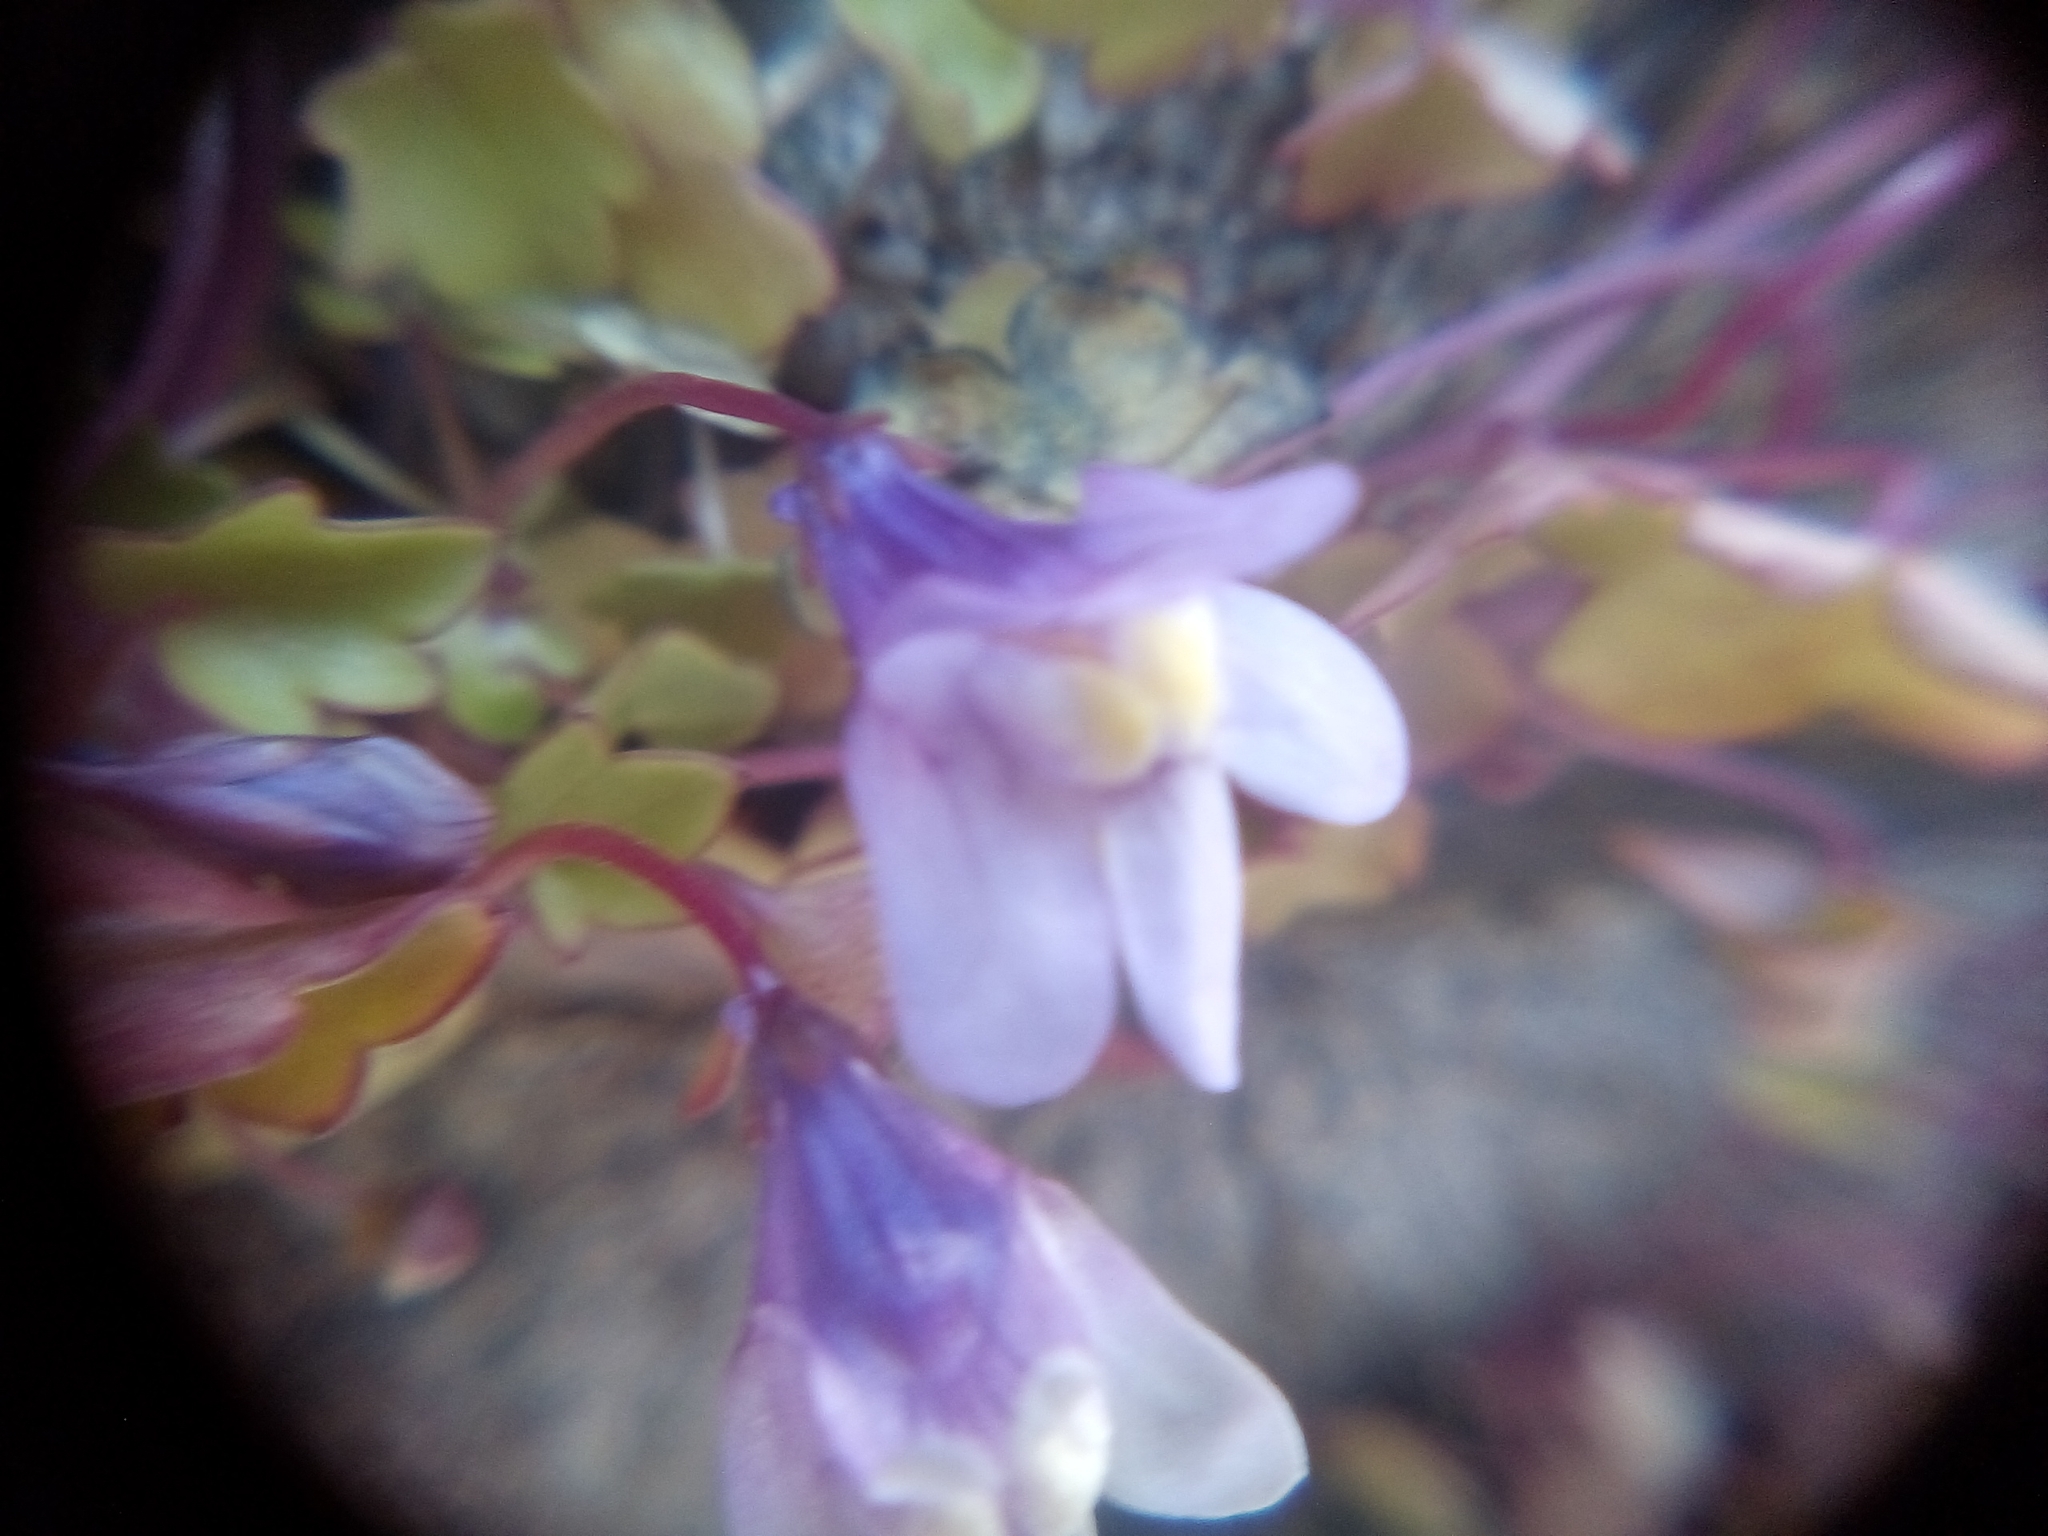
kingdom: Plantae
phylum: Tracheophyta
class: Magnoliopsida
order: Lamiales
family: Plantaginaceae
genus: Cymbalaria
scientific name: Cymbalaria muralis
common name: Ivy-leaved toadflax
